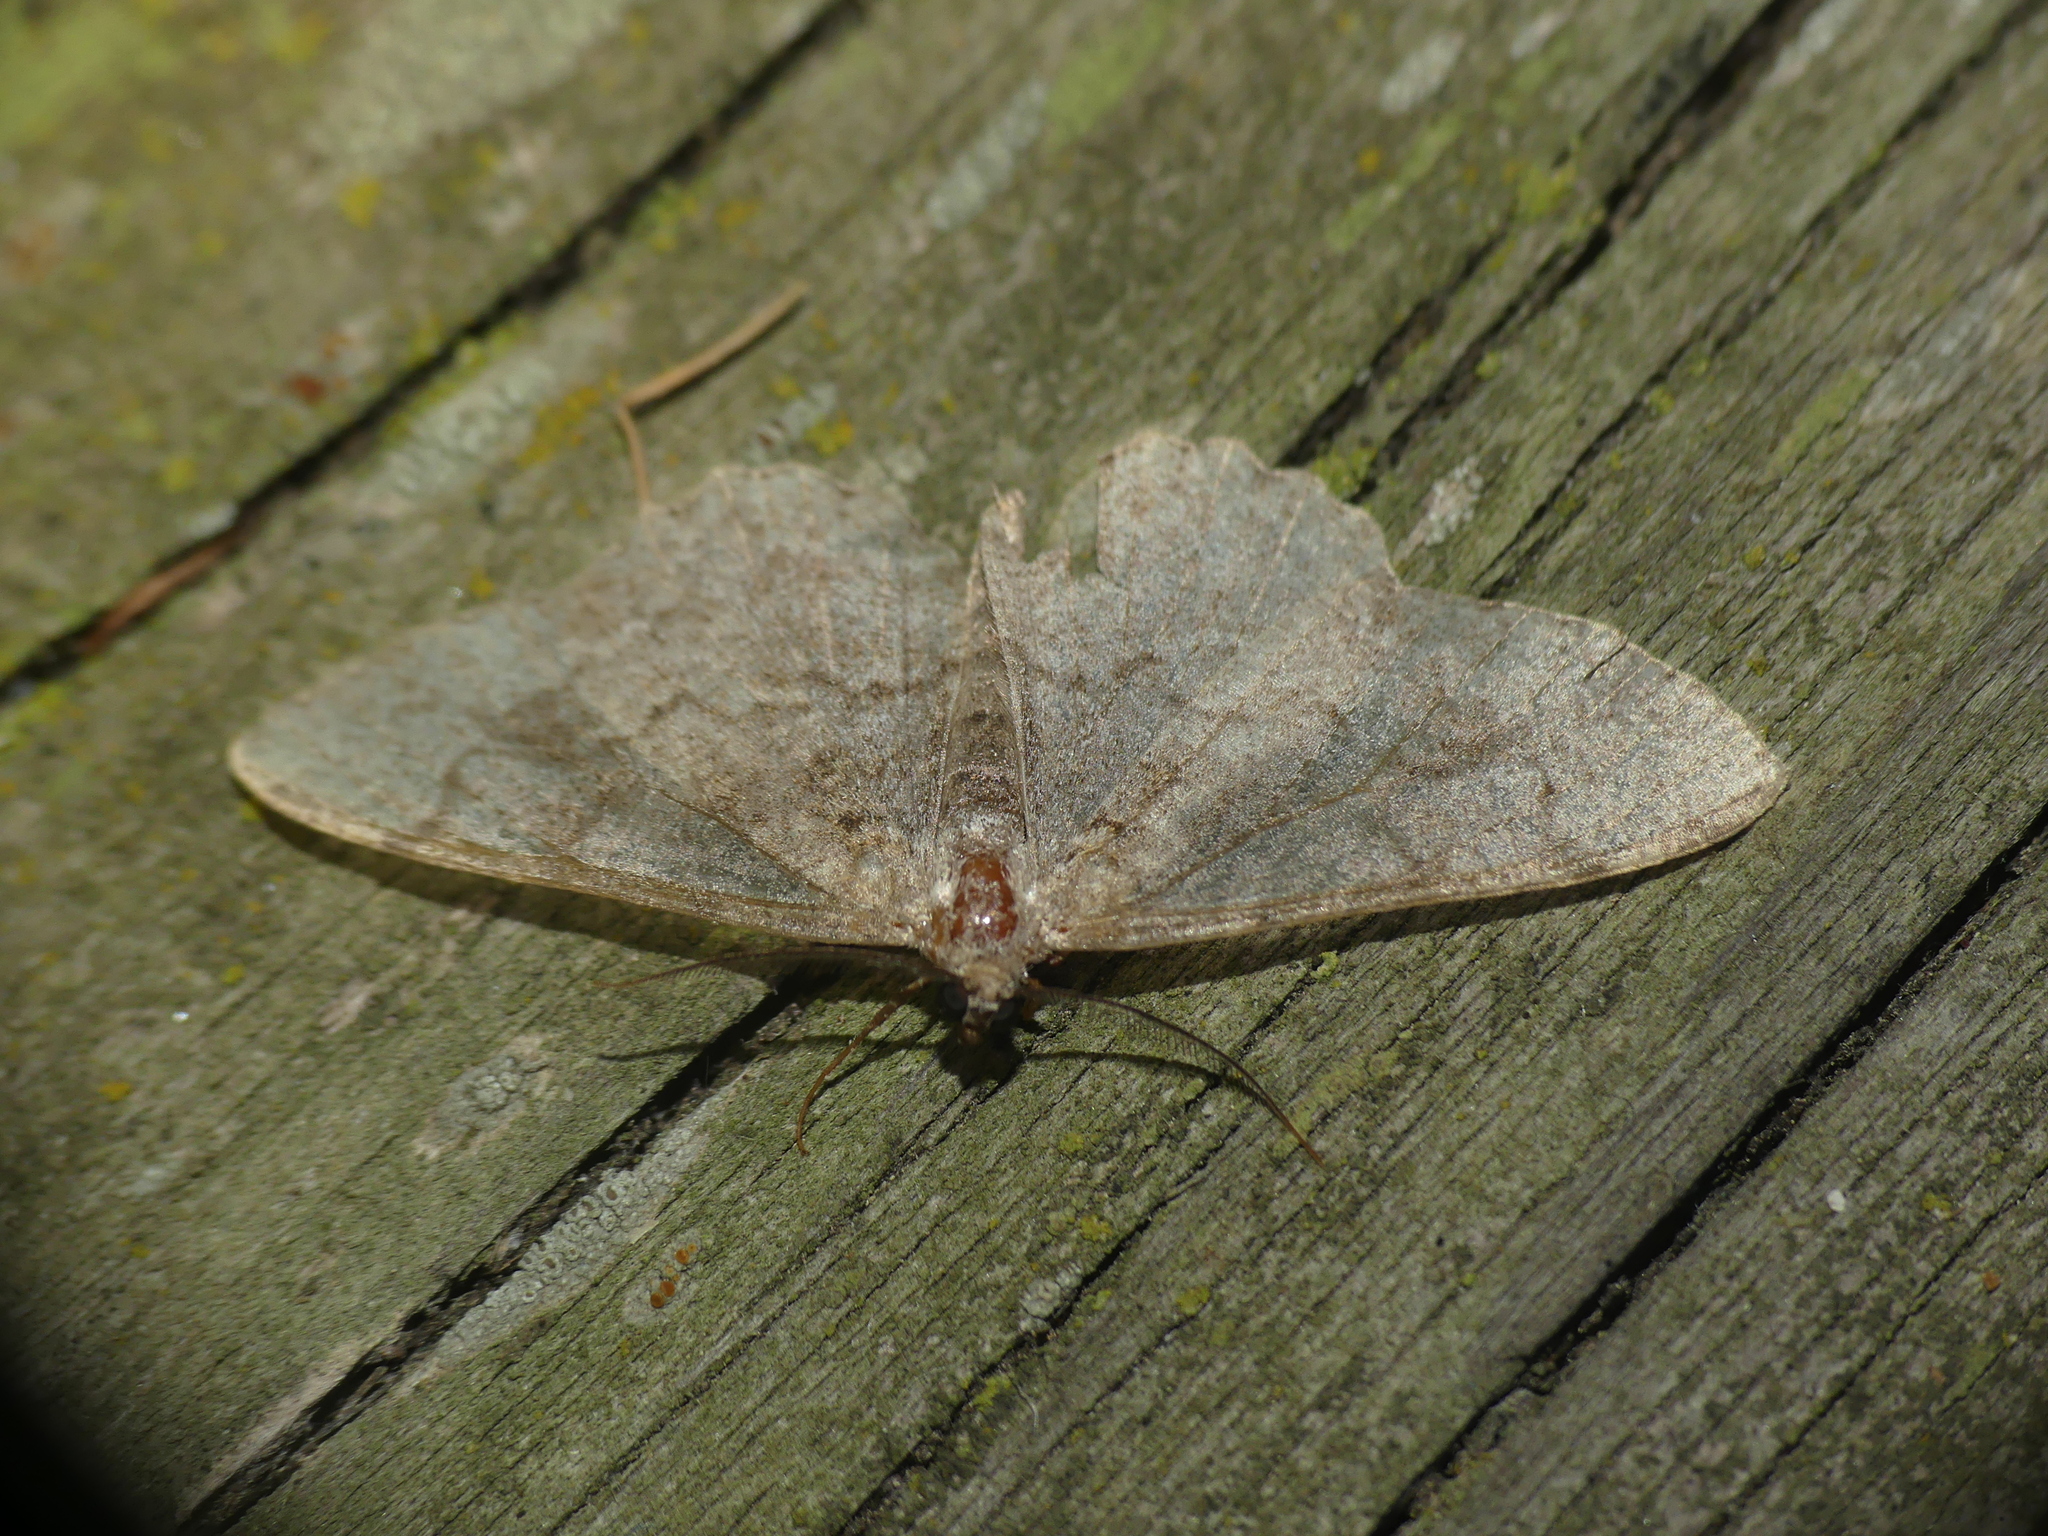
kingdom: Animalia
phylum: Arthropoda
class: Insecta
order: Lepidoptera
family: Geometridae
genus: Alcis
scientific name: Alcis repandata
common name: Mottled beauty
